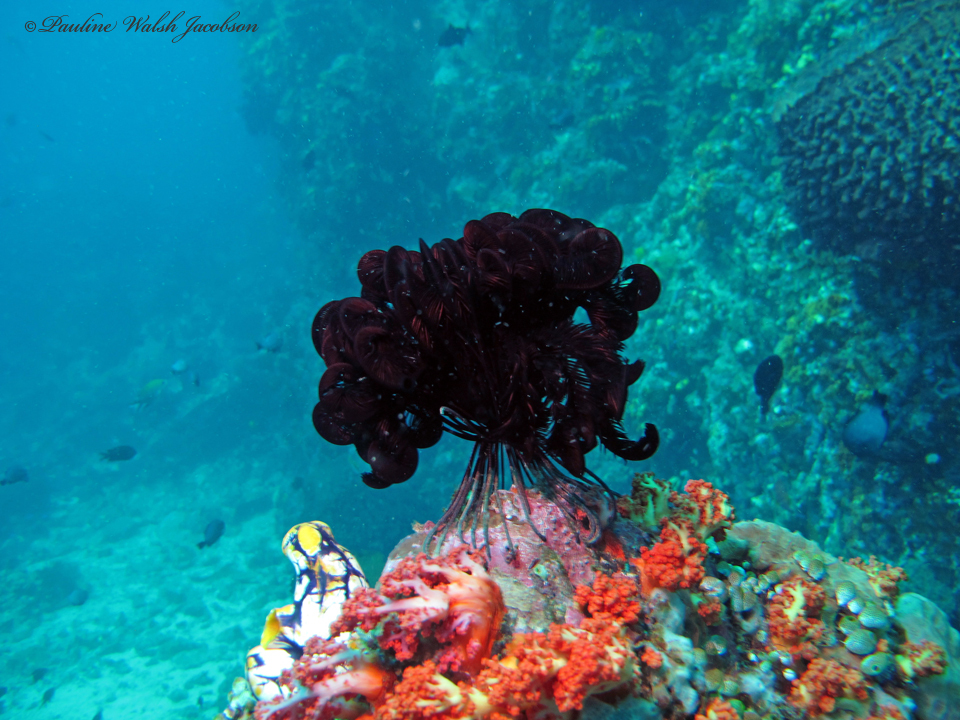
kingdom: Animalia
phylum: Echinodermata
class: Crinoidea
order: Comatulida
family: Colobometridae
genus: Pontiometra
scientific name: Pontiometra andersoni
